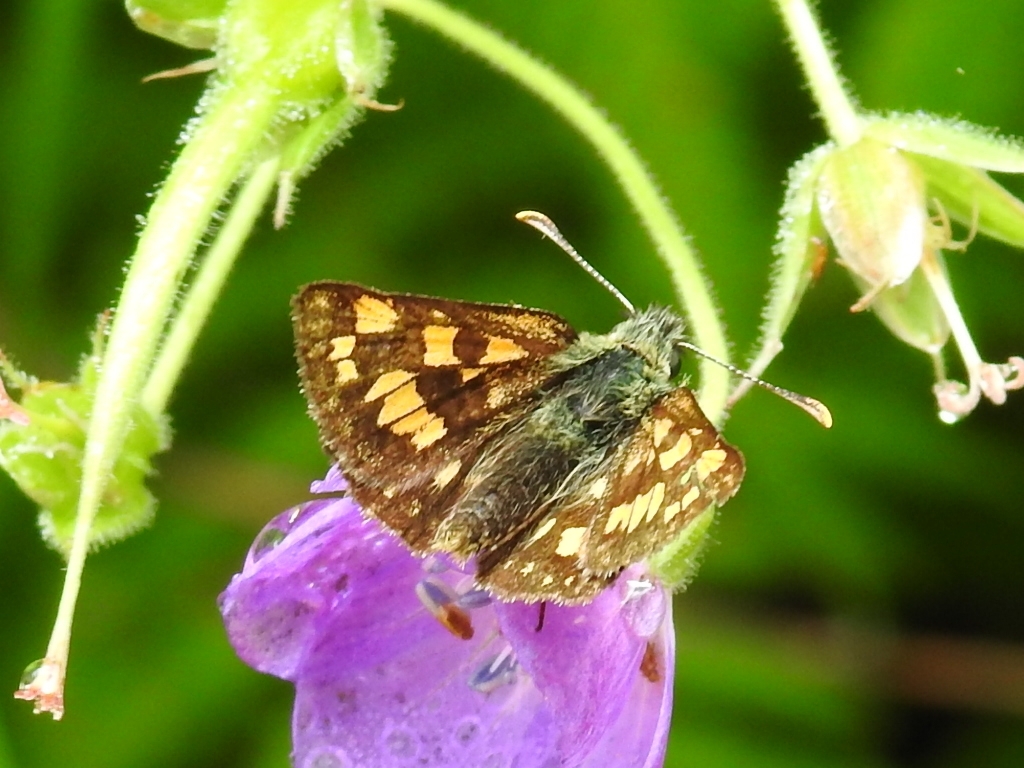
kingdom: Animalia
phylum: Arthropoda
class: Insecta
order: Lepidoptera
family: Hesperiidae
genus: Carterocephalus
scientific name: Carterocephalus palaemon
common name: Chequered skipper
